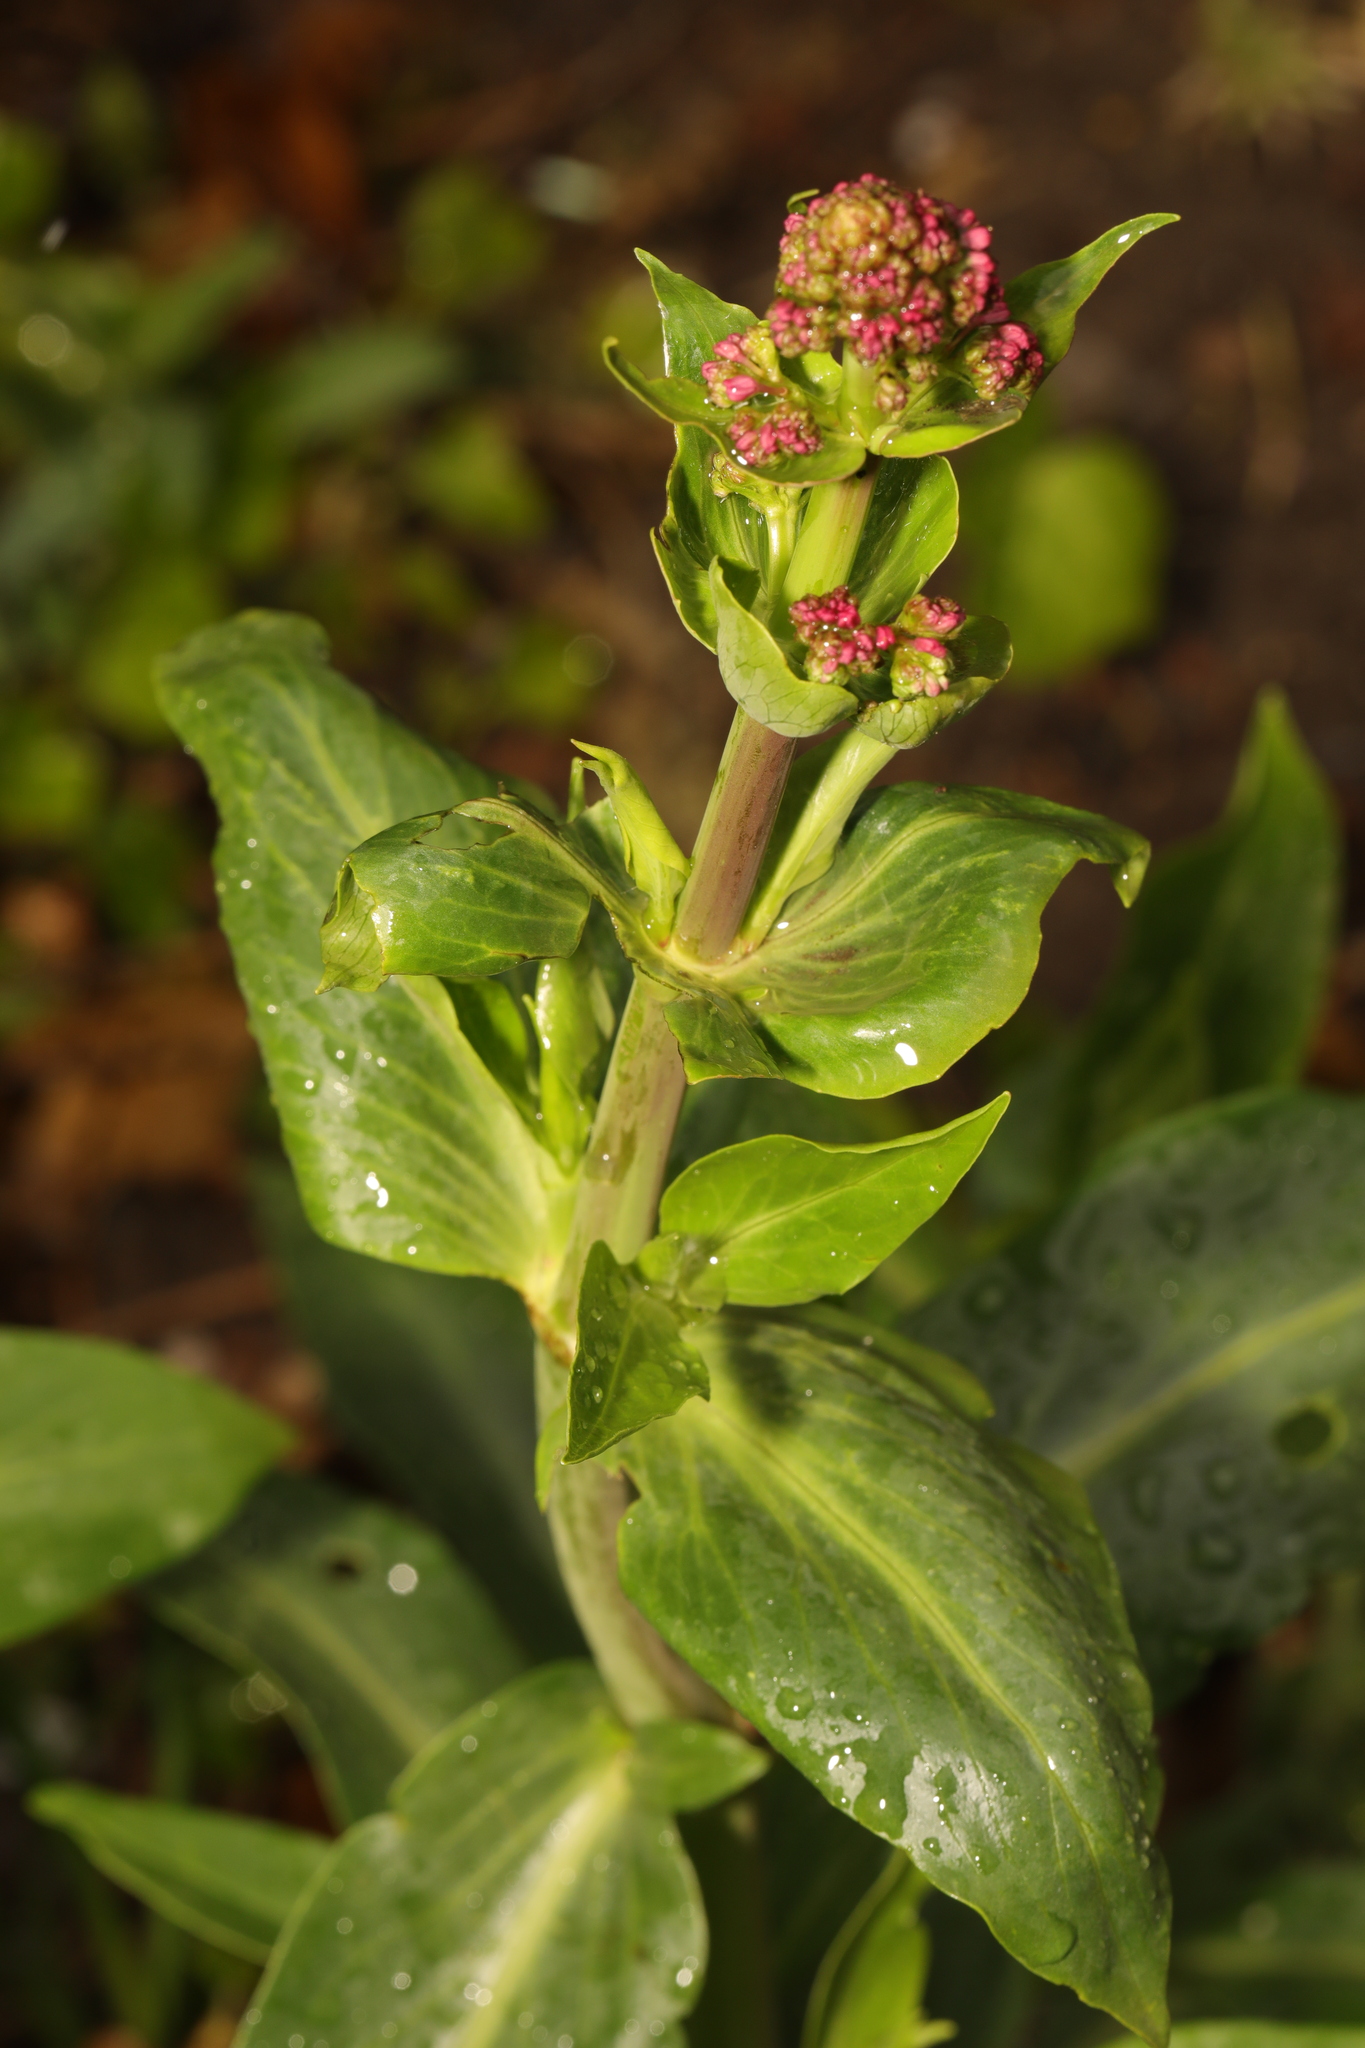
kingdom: Plantae
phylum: Tracheophyta
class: Magnoliopsida
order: Dipsacales
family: Caprifoliaceae
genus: Centranthus
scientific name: Centranthus ruber
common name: Red valerian
